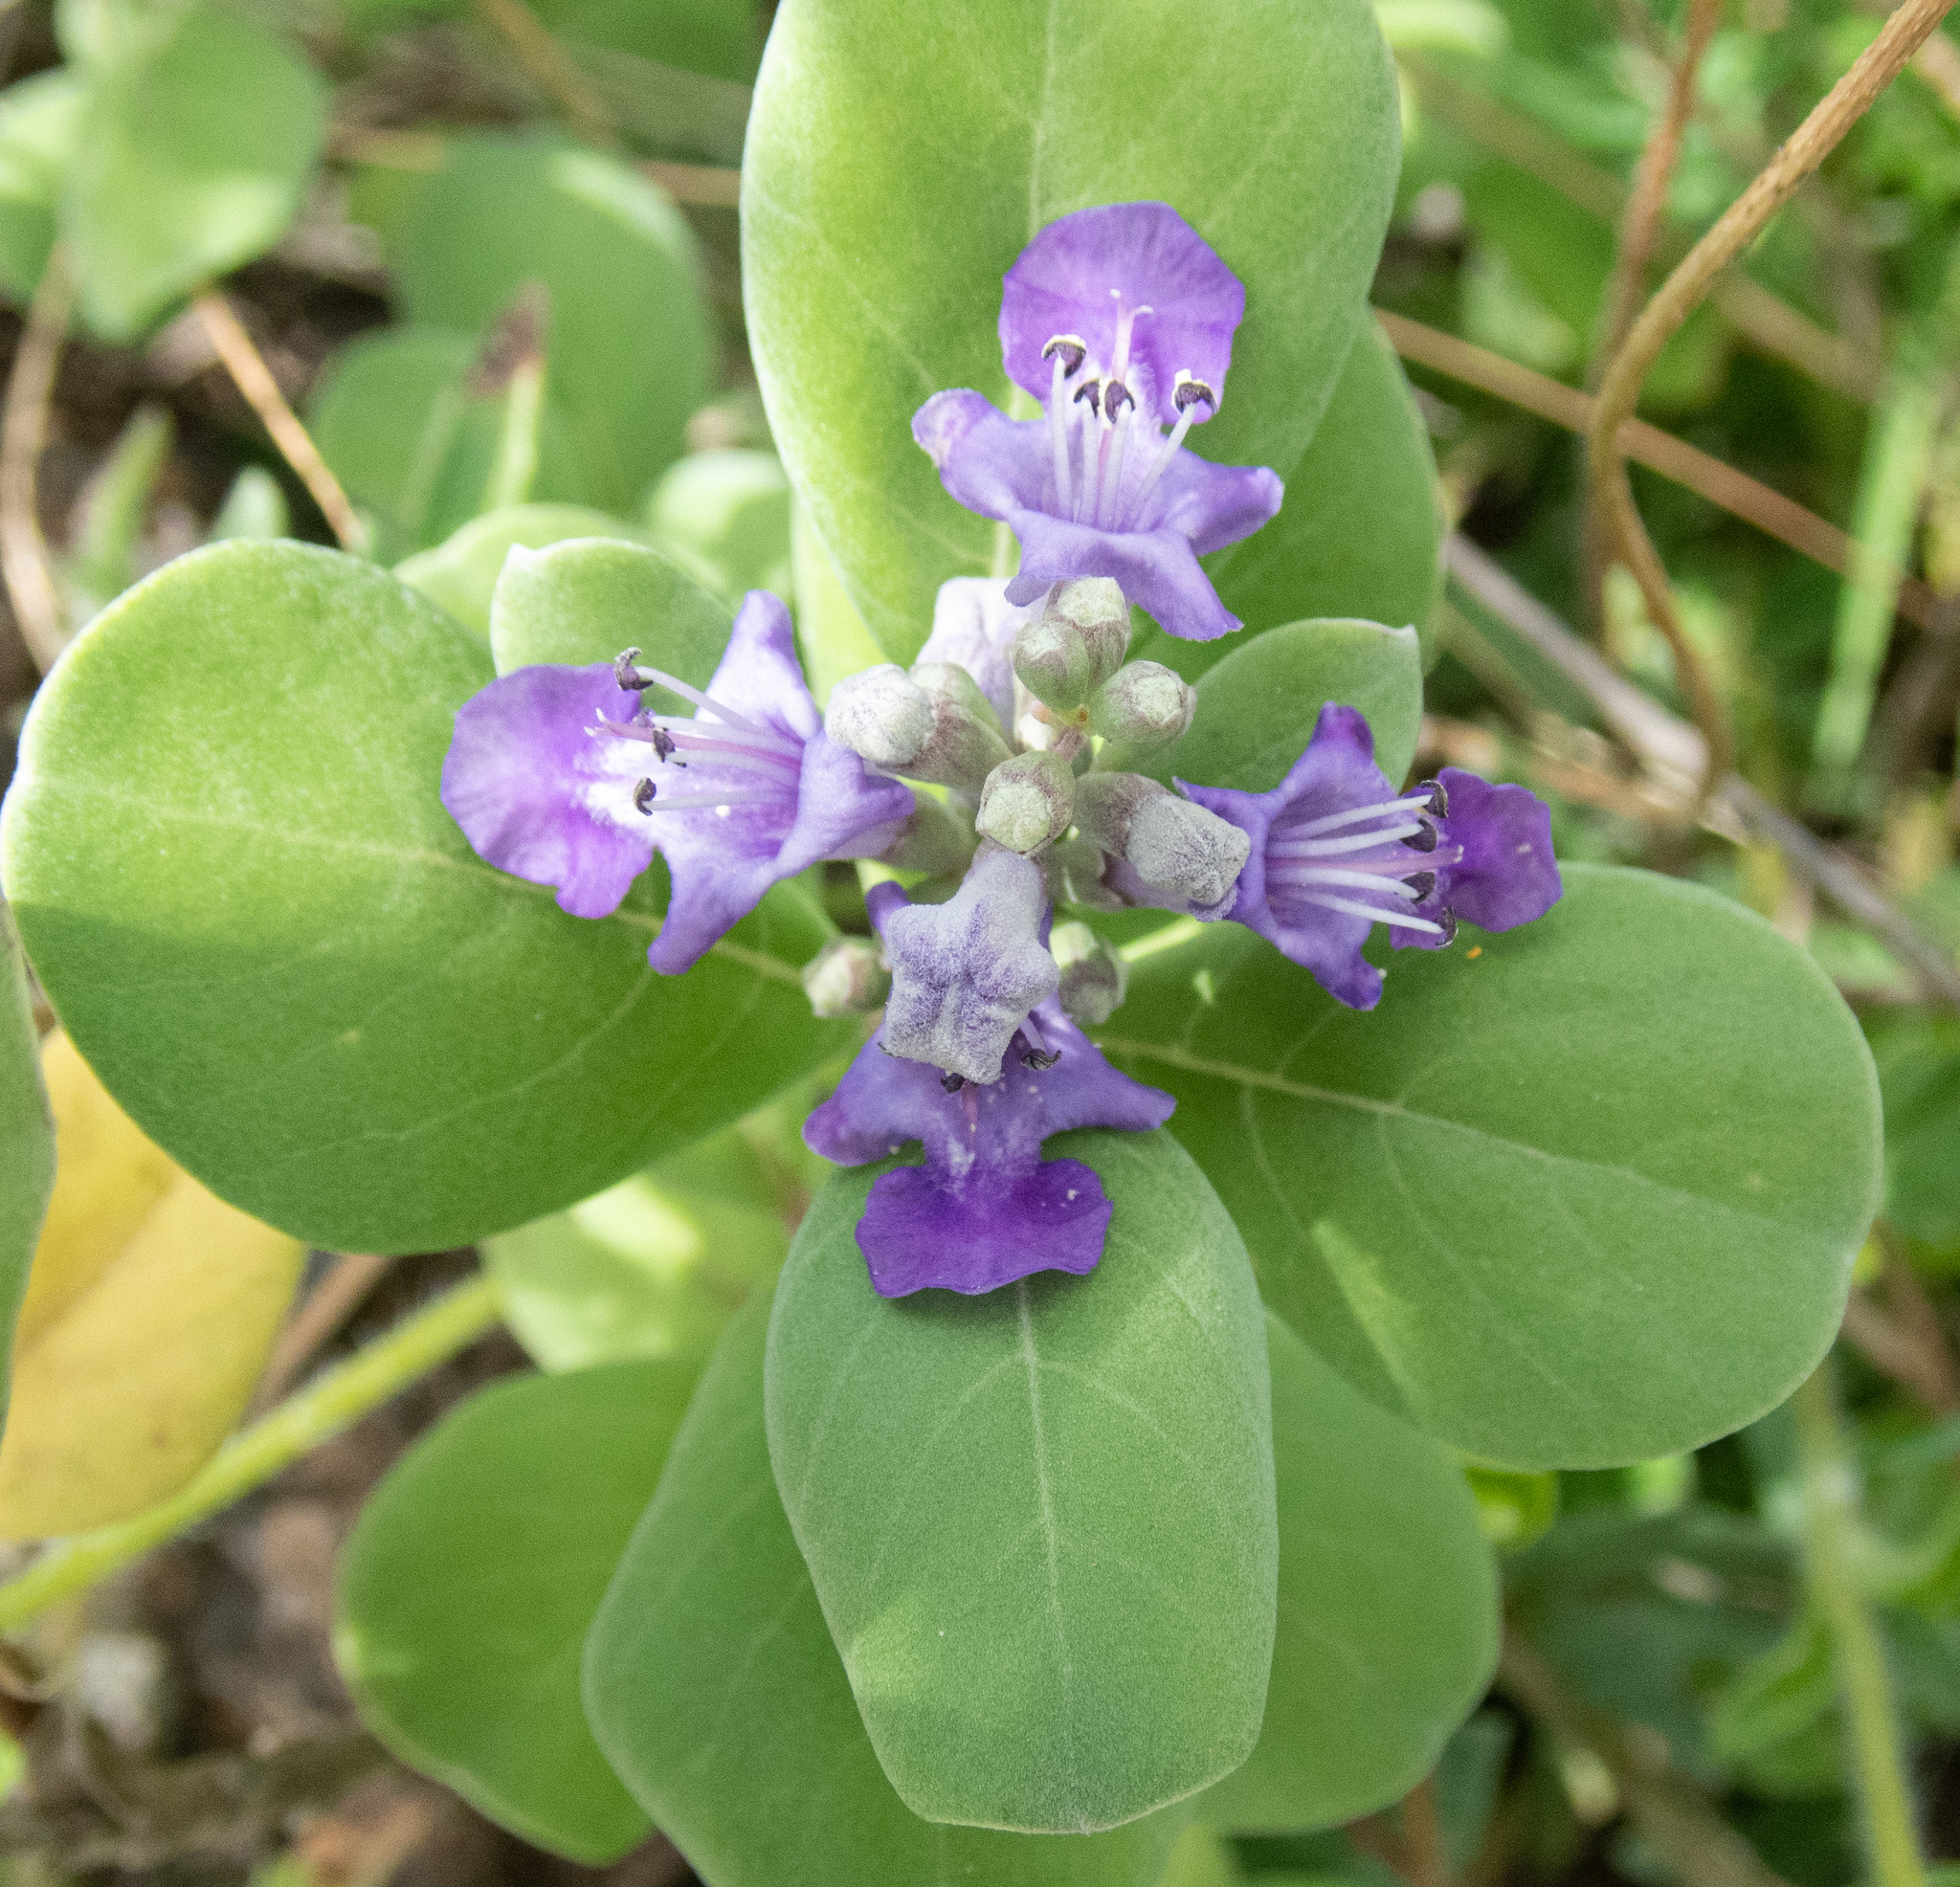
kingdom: Plantae
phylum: Tracheophyta
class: Magnoliopsida
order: Lamiales
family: Lamiaceae
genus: Vitex
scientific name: Vitex rotundifolia
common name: Beach vitex
